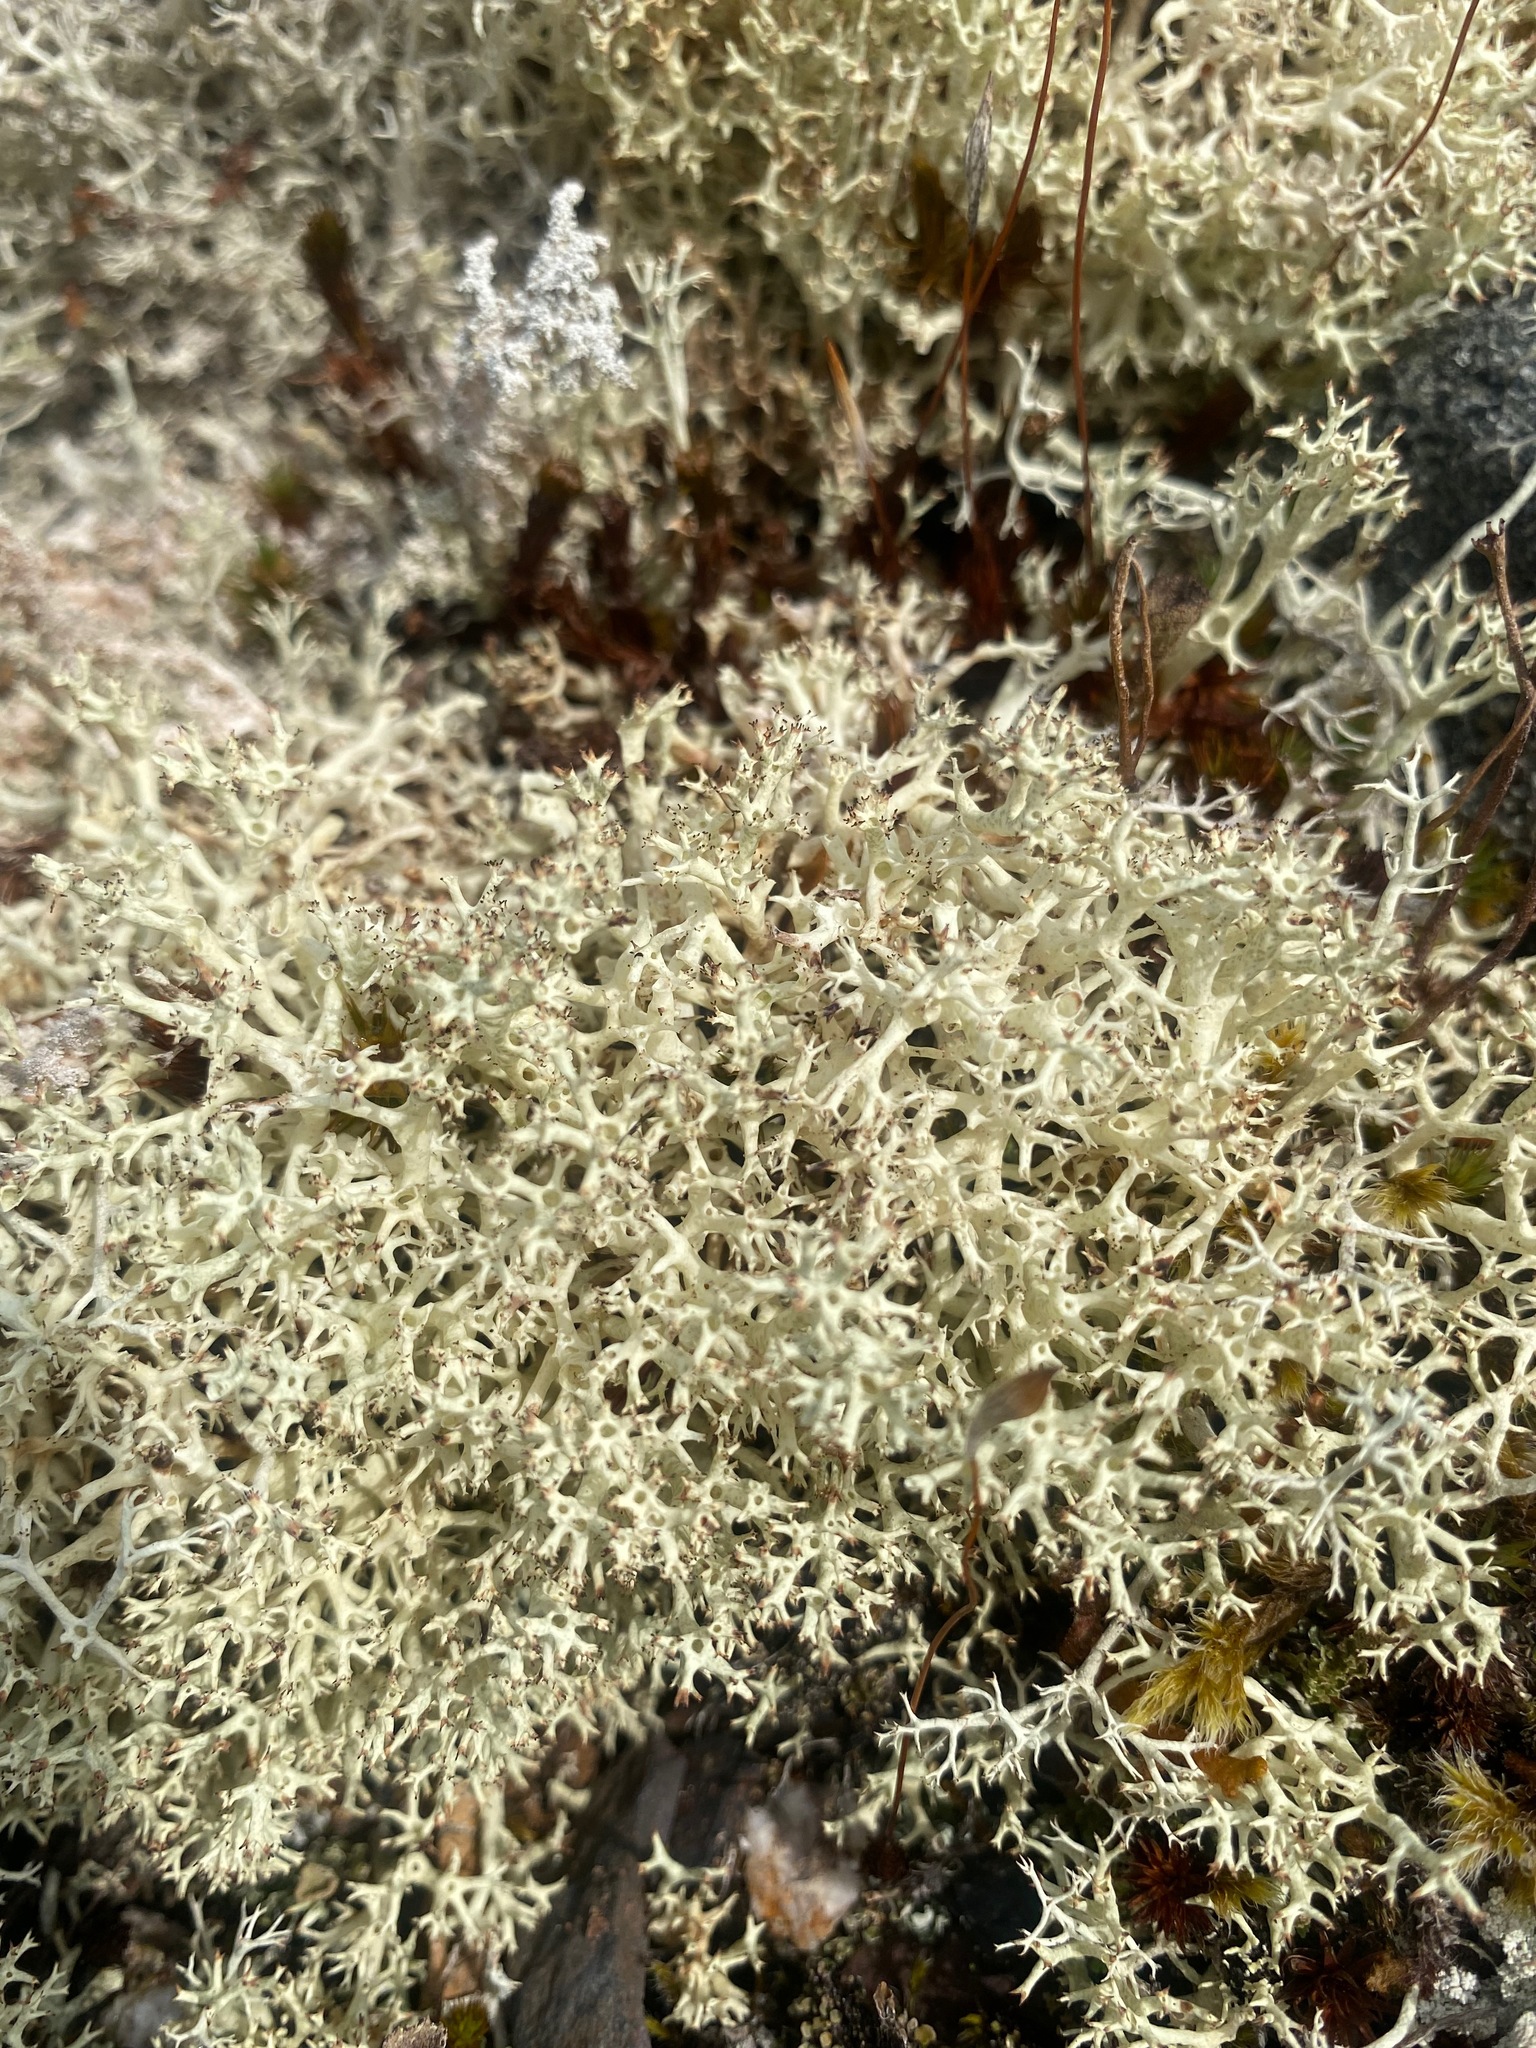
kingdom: Fungi
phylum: Ascomycota
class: Lecanoromycetes
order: Lecanorales
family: Cladoniaceae
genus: Cladonia
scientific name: Cladonia uncialis
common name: Thorn lichen
